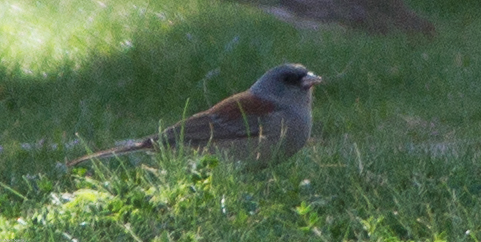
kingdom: Animalia
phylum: Chordata
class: Aves
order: Passeriformes
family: Passerellidae
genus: Junco
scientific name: Junco hyemalis
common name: Dark-eyed junco
